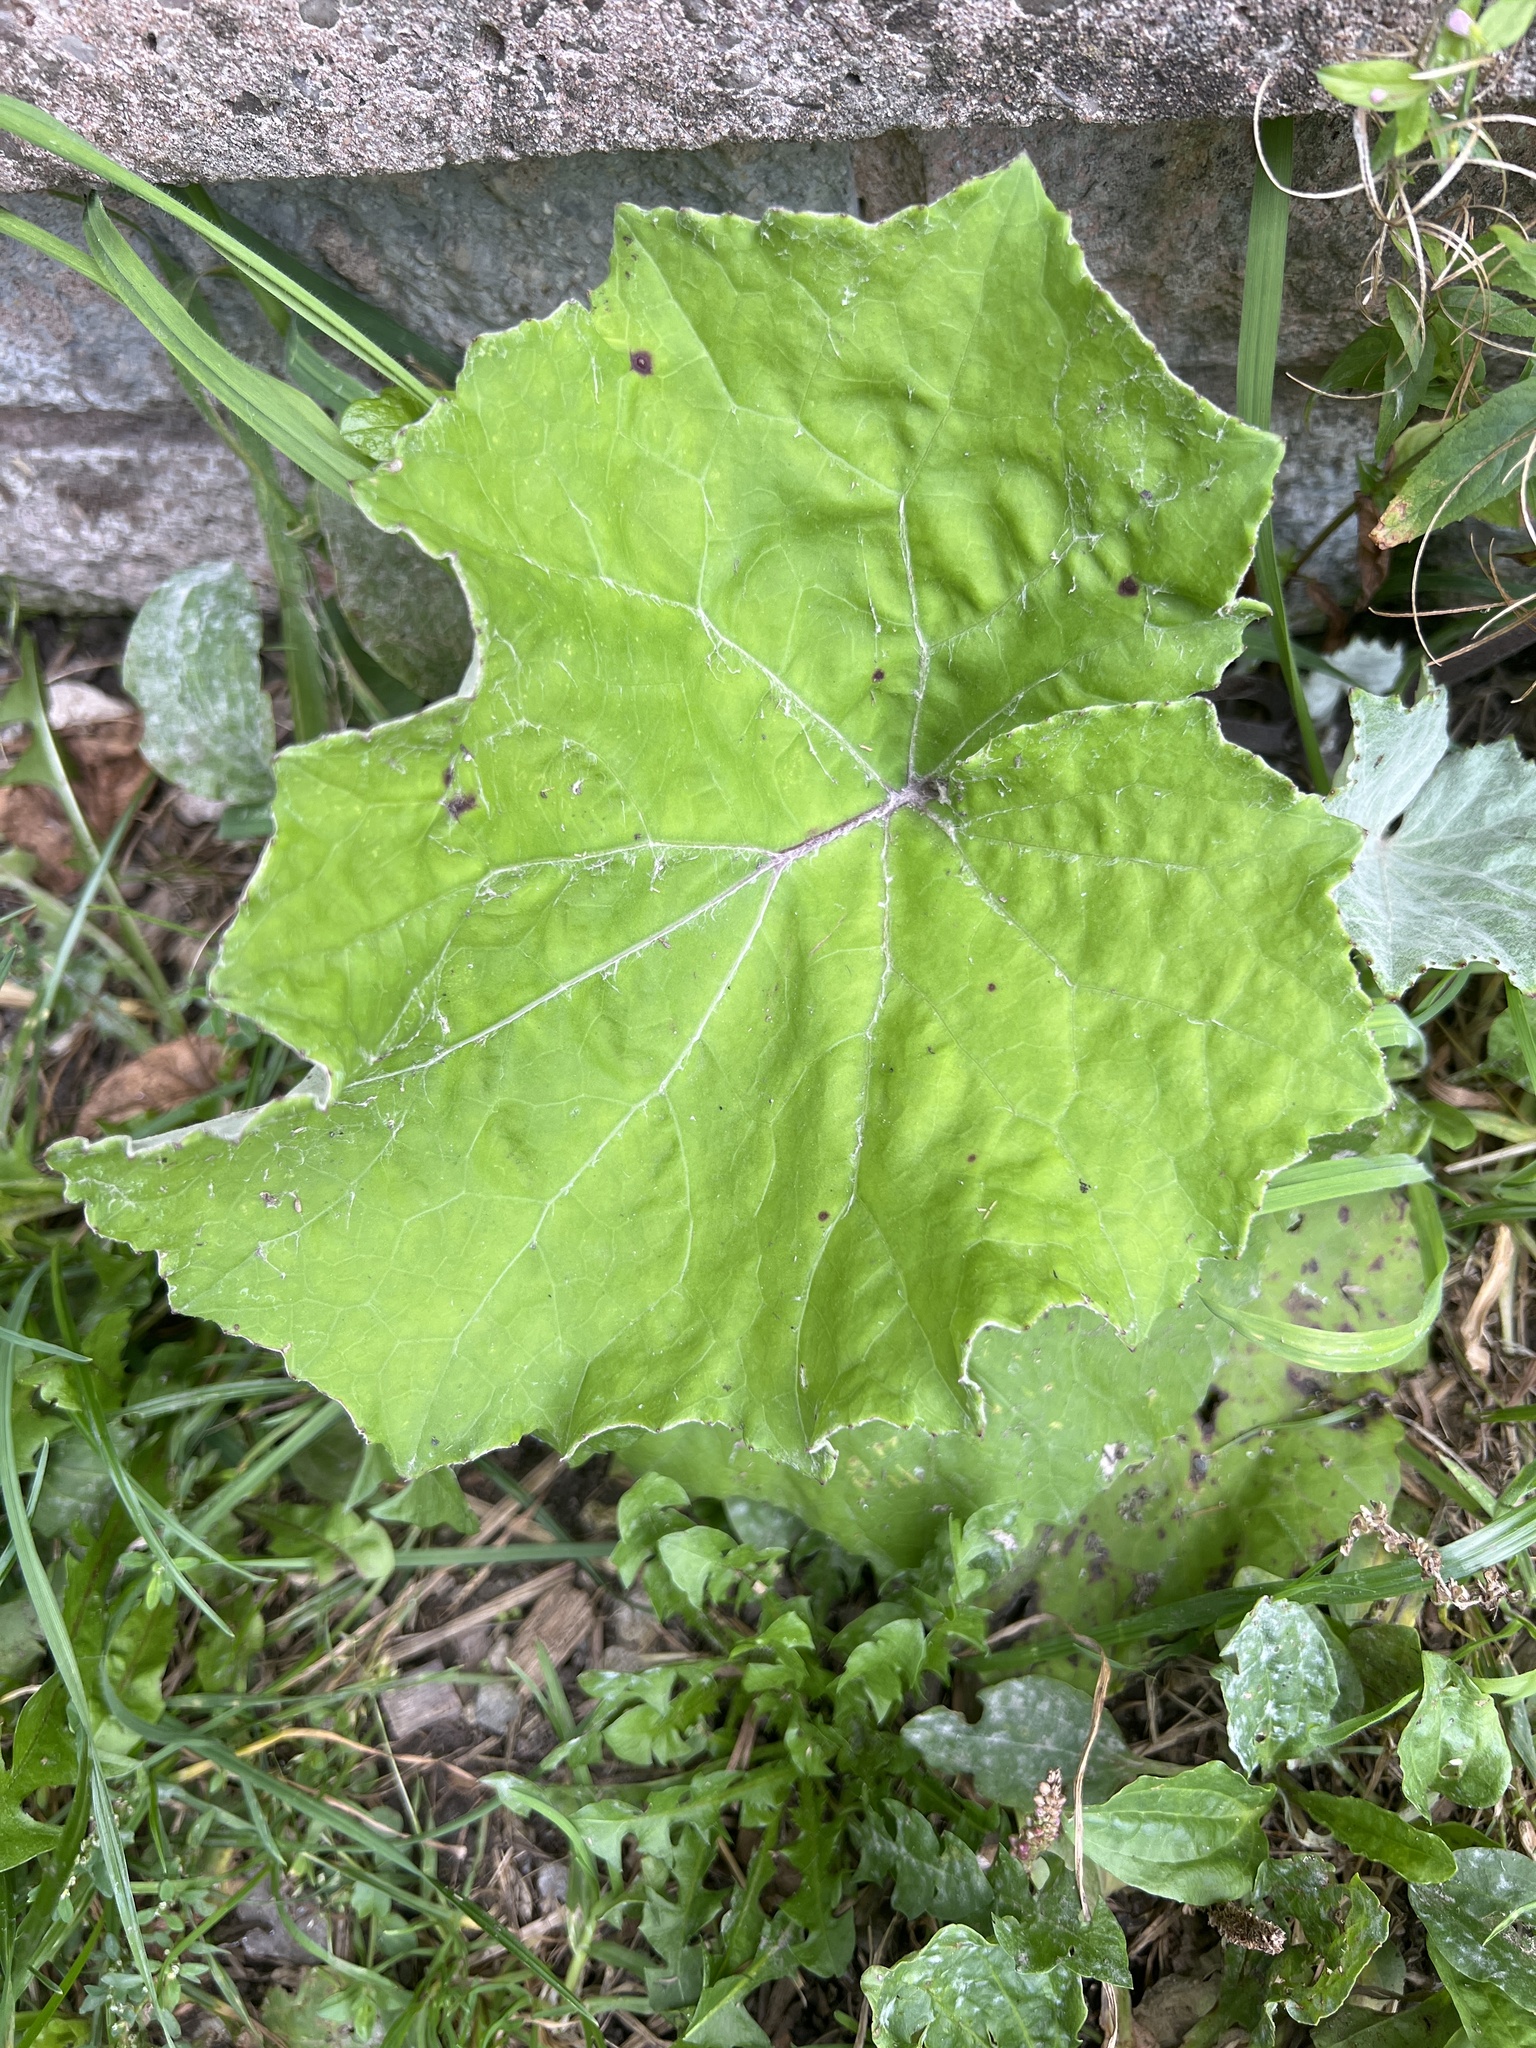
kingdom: Plantae
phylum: Tracheophyta
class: Magnoliopsida
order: Asterales
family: Asteraceae
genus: Tussilago
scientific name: Tussilago farfara
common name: Coltsfoot
